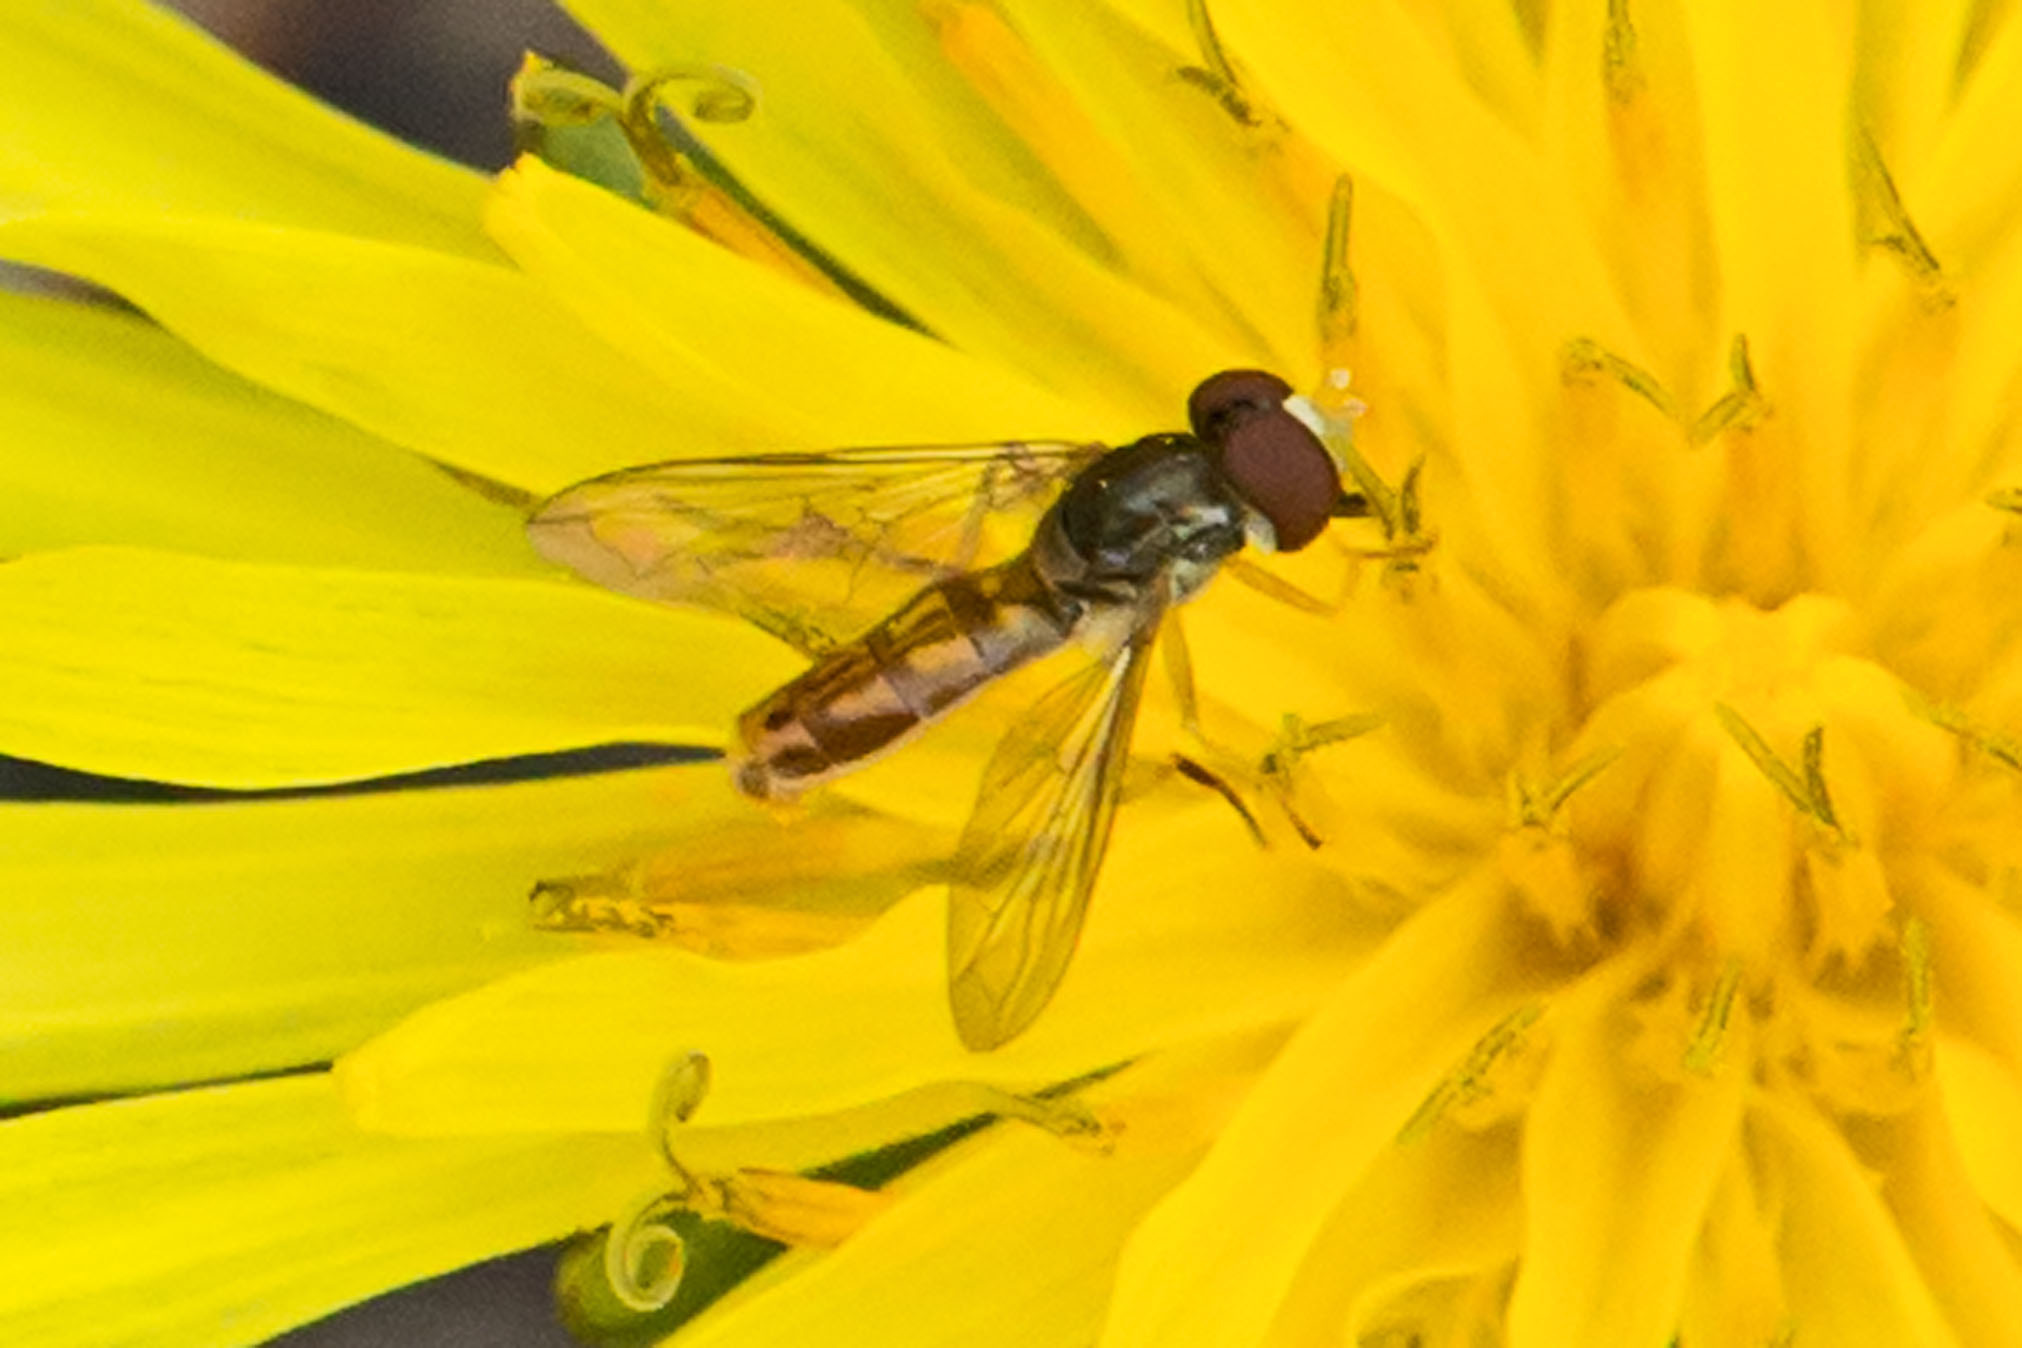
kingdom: Animalia
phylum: Arthropoda
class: Insecta
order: Diptera
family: Syrphidae
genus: Toxomerus
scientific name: Toxomerus marginatus
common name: Syrphid fly
